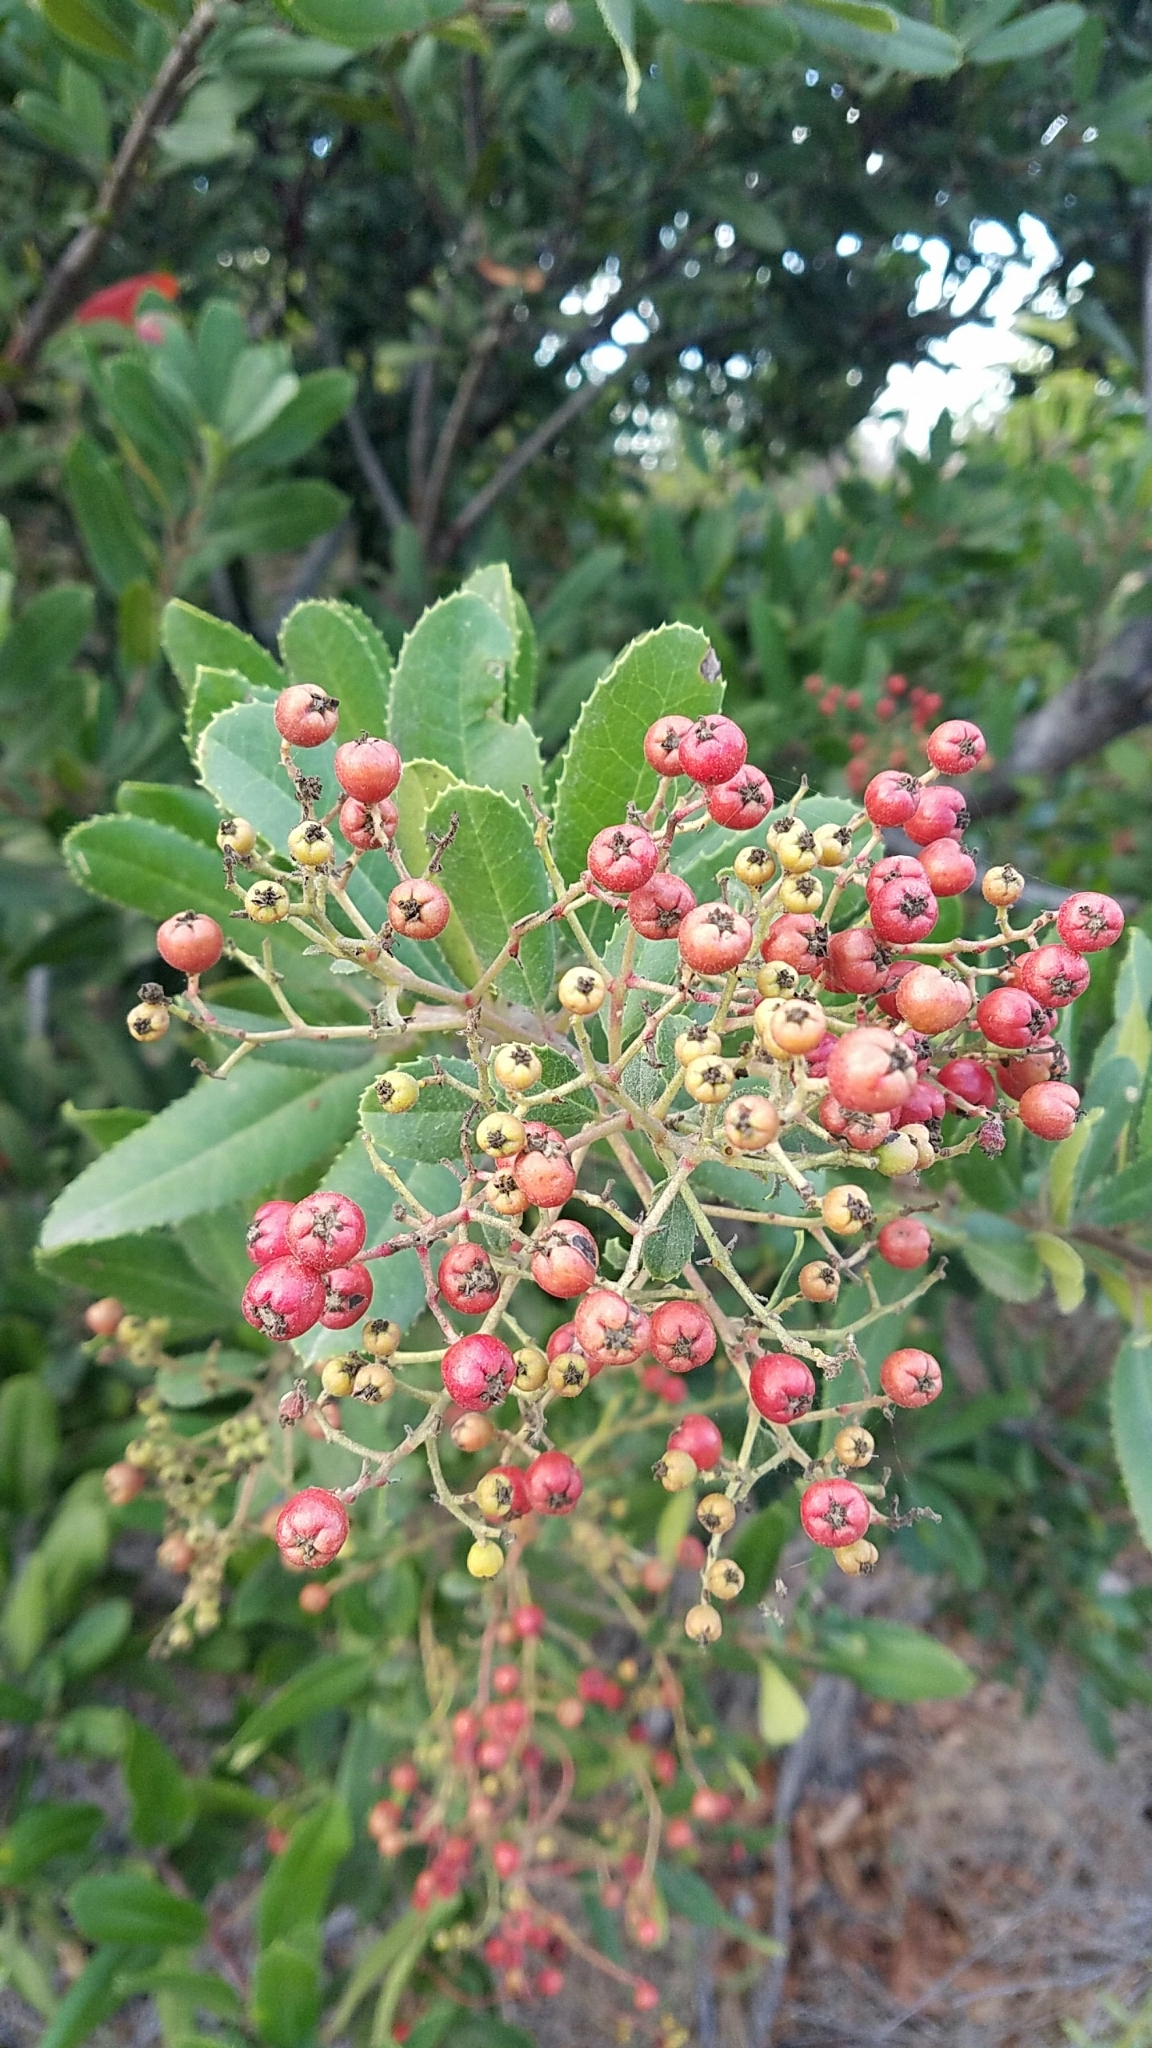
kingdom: Plantae
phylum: Tracheophyta
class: Magnoliopsida
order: Rosales
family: Rosaceae
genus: Heteromeles
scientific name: Heteromeles arbutifolia
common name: California-holly
